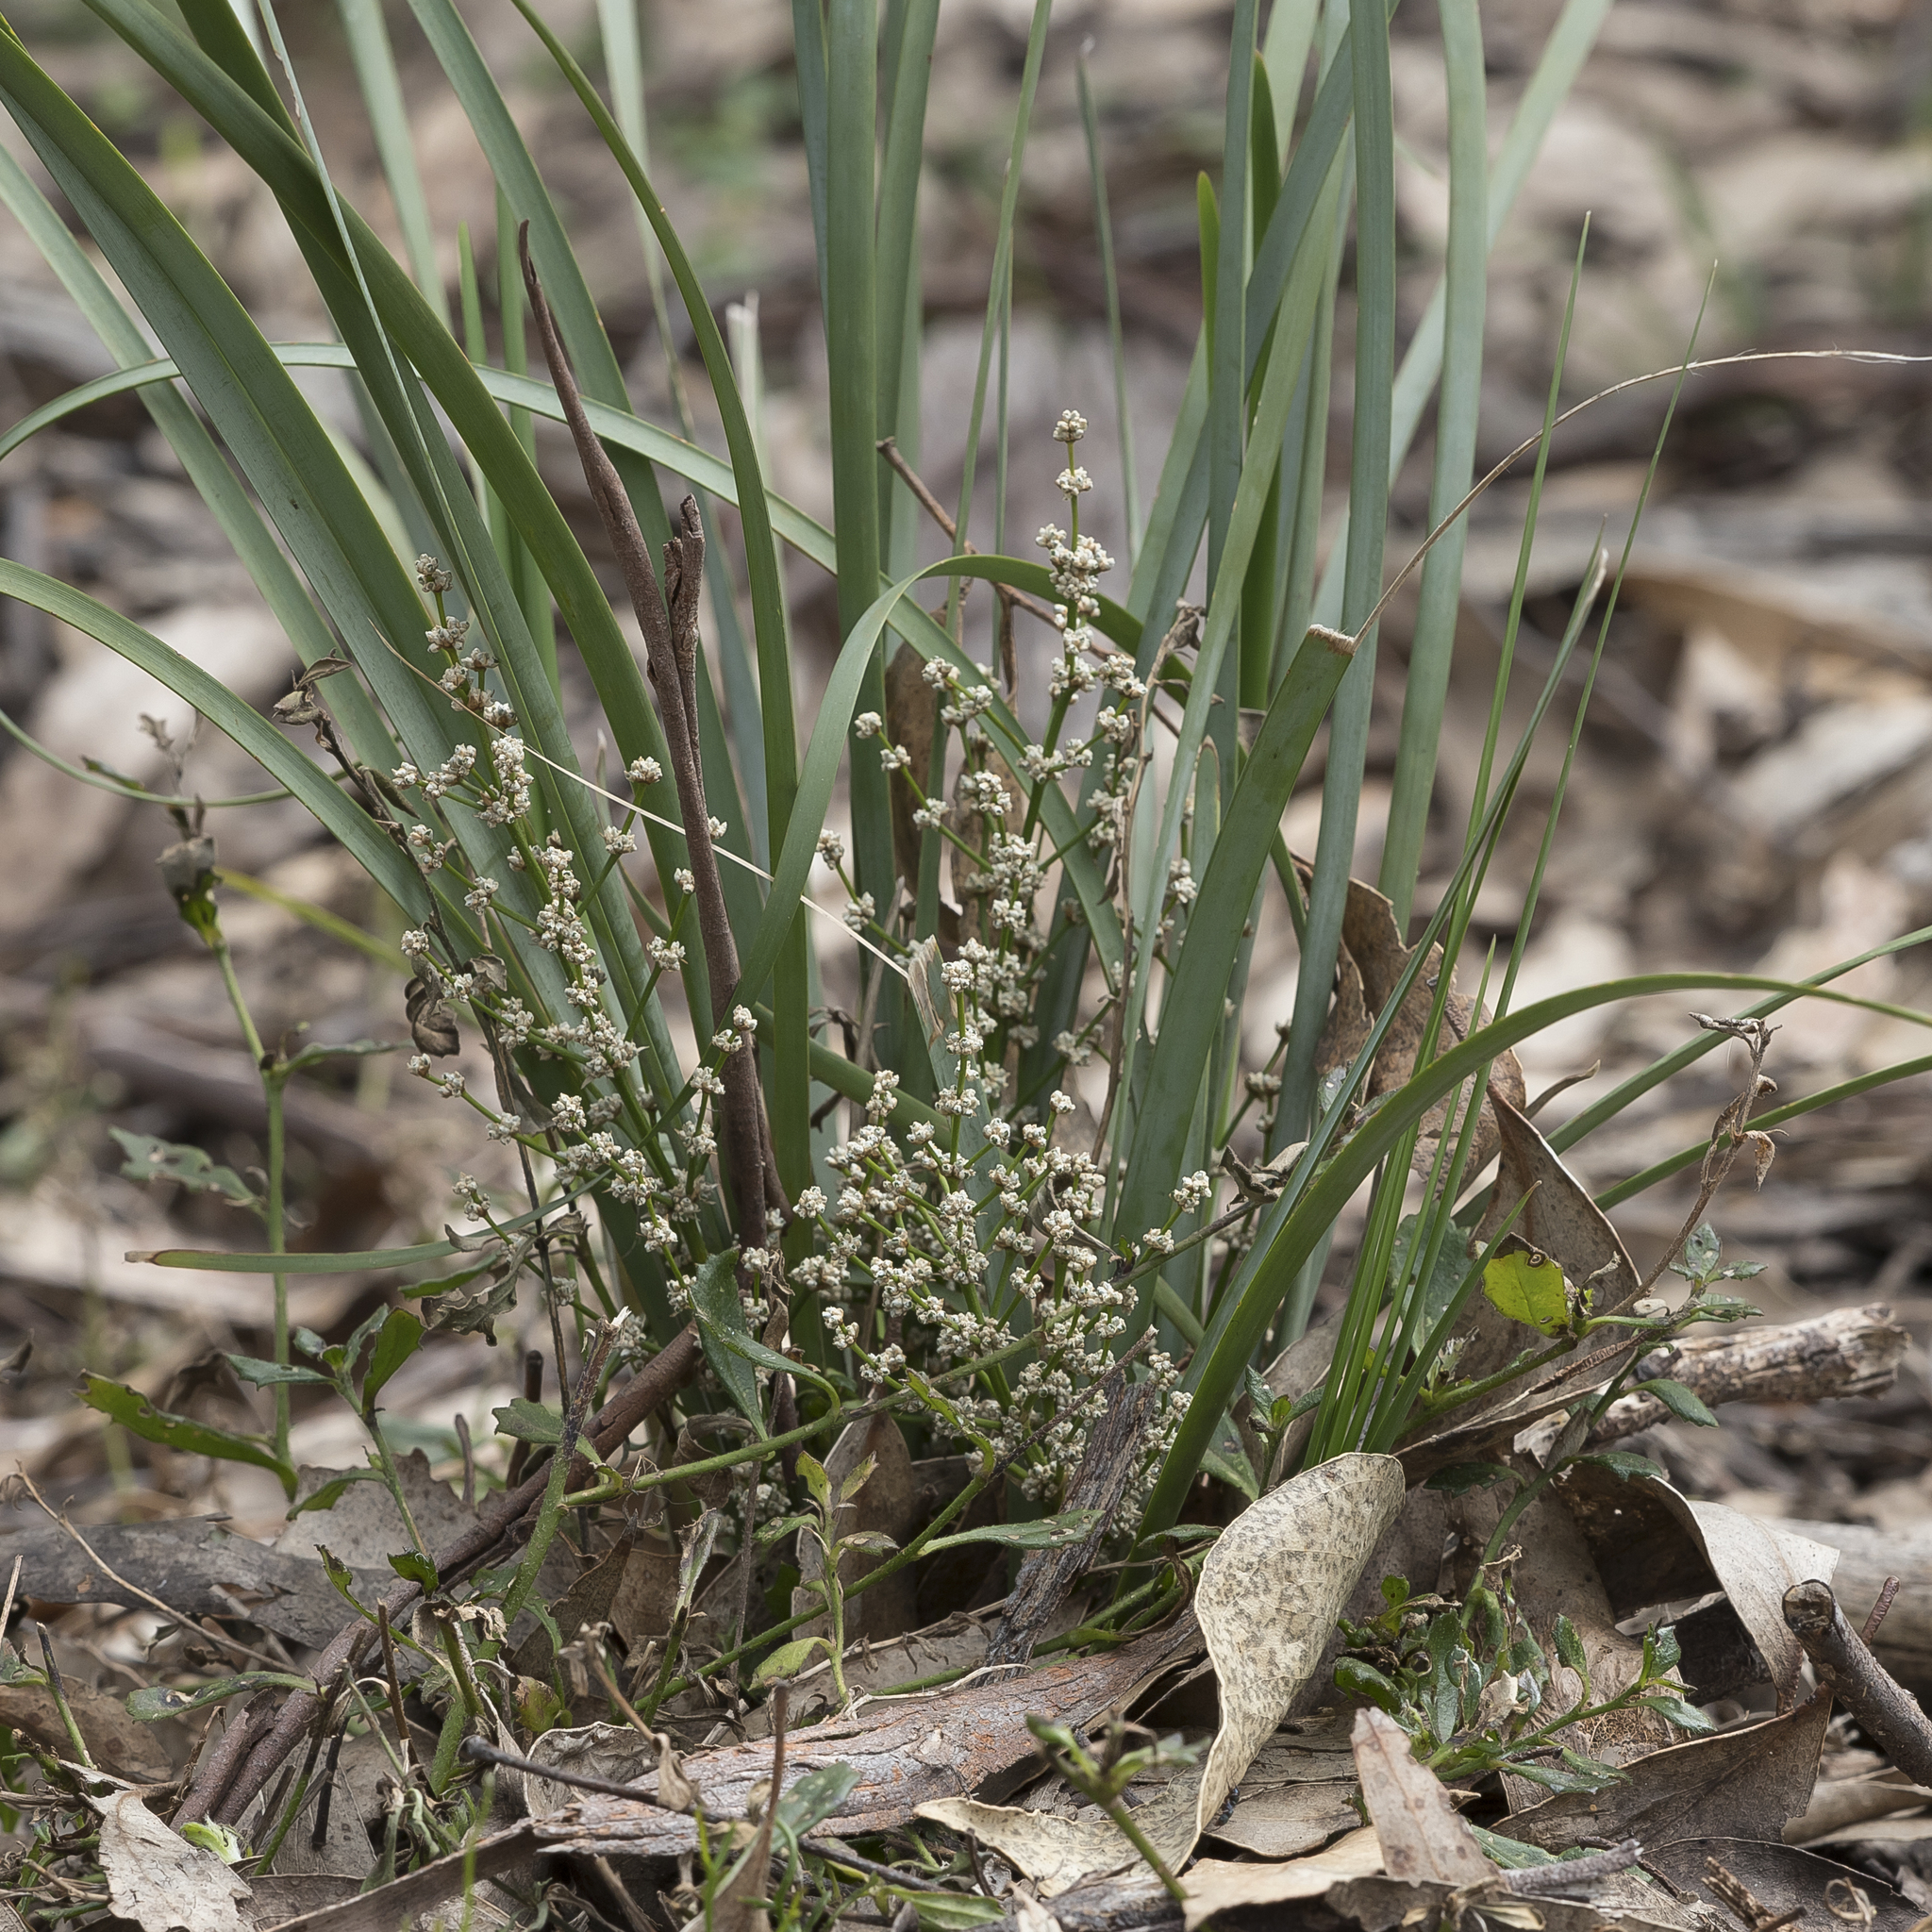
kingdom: Plantae
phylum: Tracheophyta
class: Liliopsida
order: Asparagales
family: Asparagaceae
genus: Lomandra
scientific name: Lomandra multiflora
